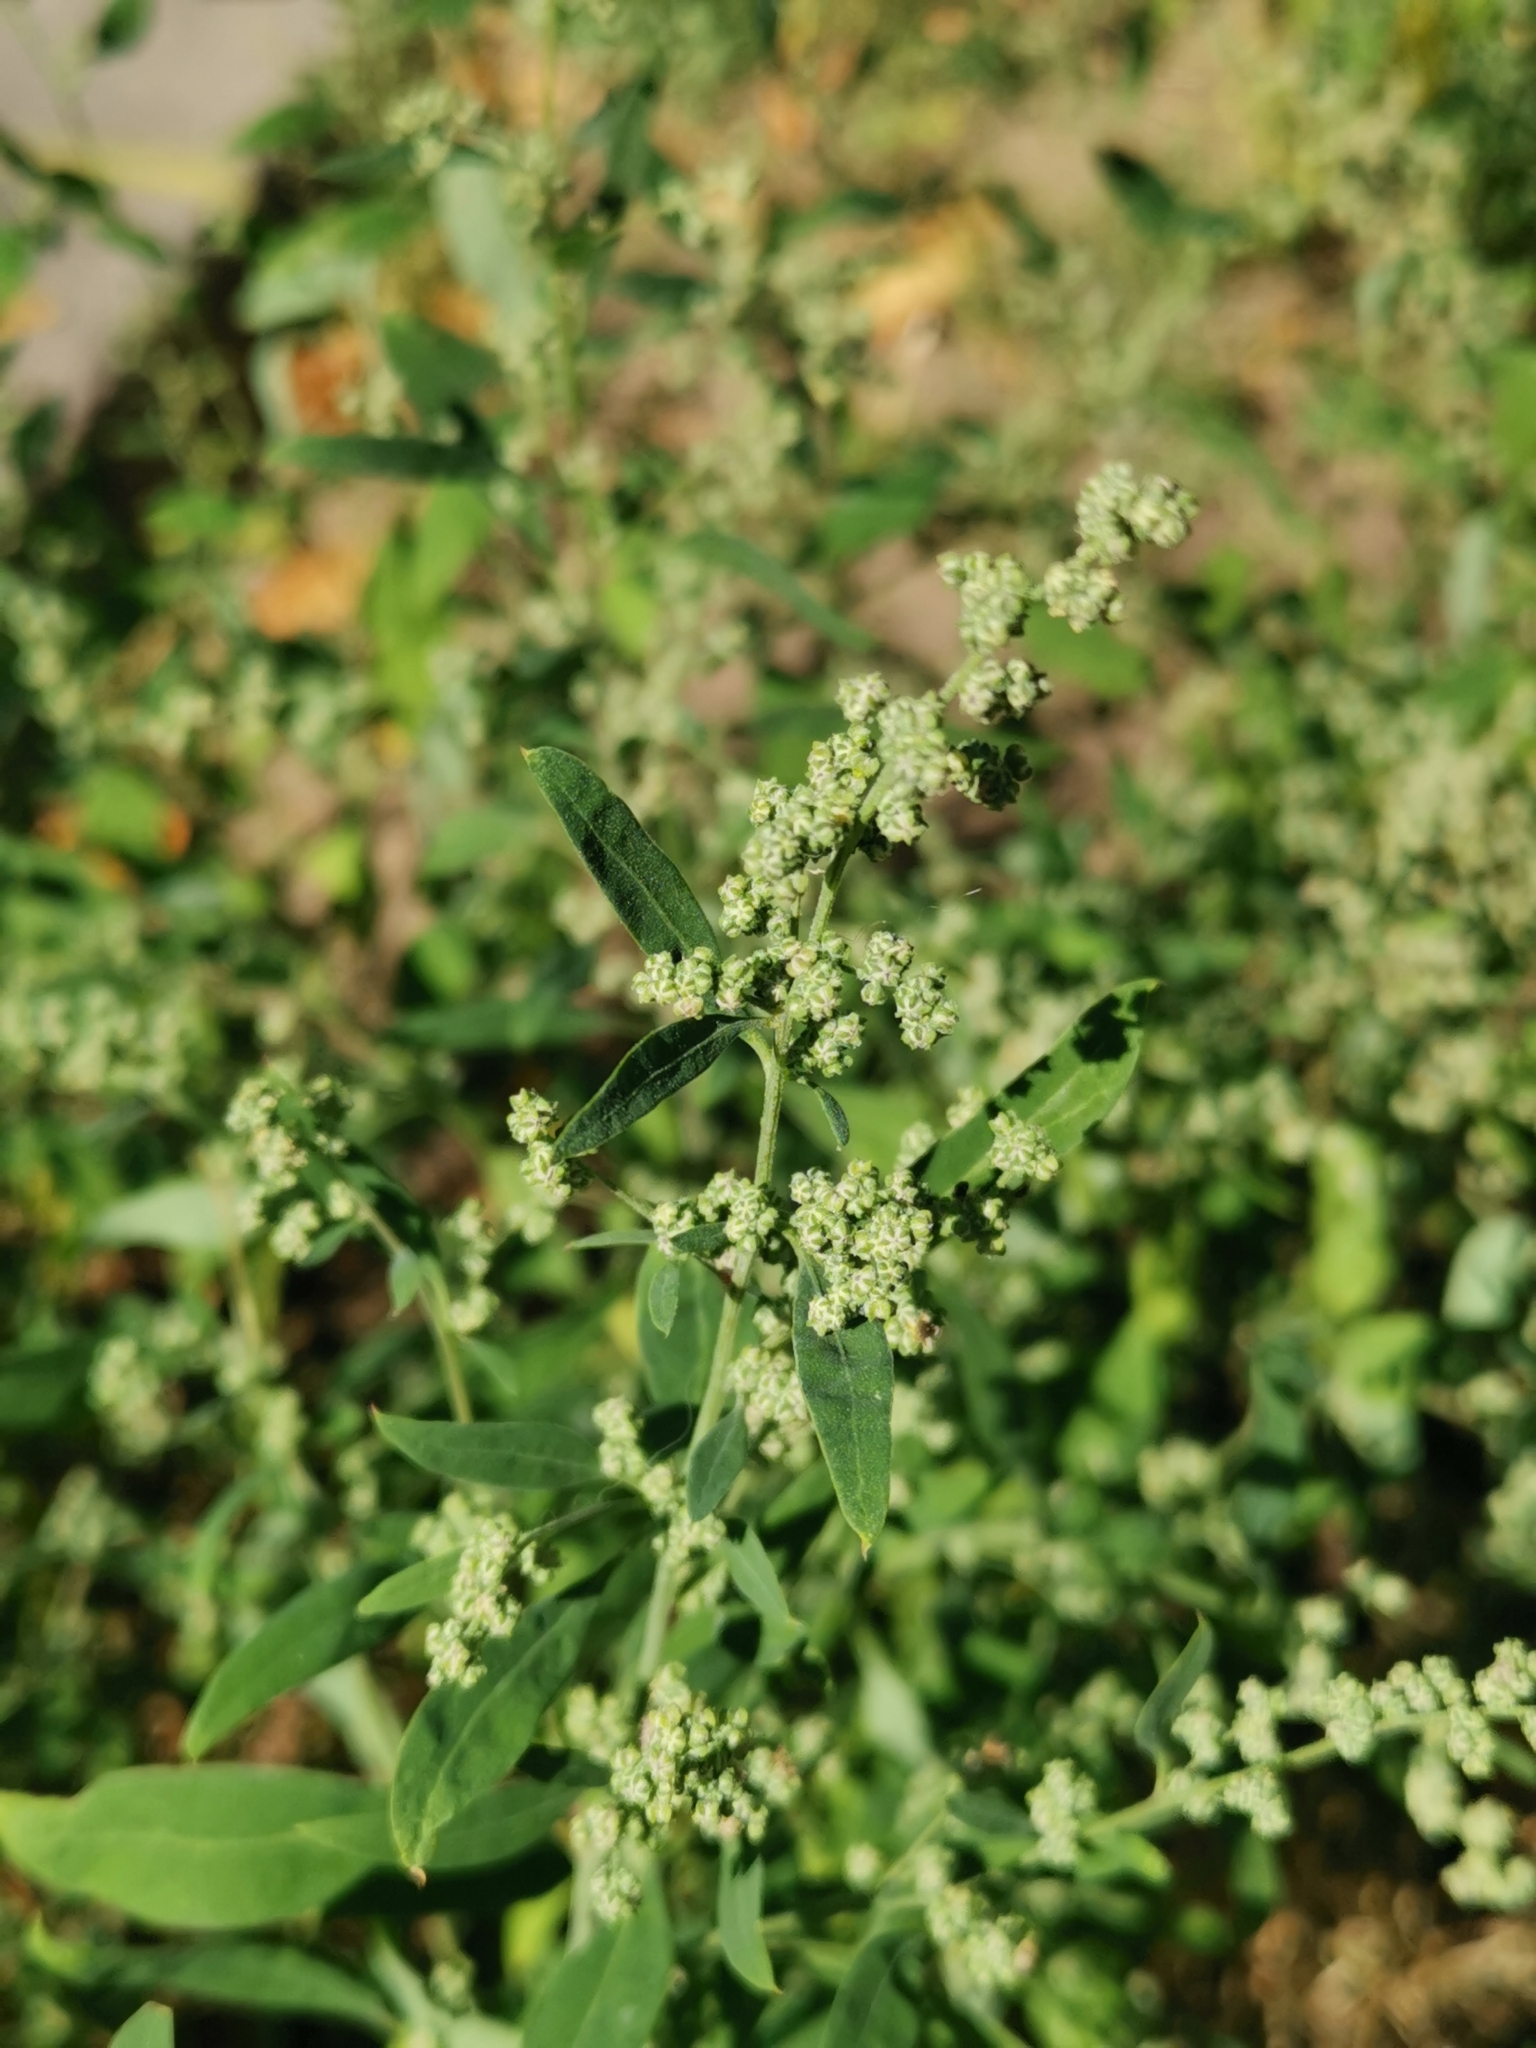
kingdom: Plantae
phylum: Tracheophyta
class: Magnoliopsida
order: Caryophyllales
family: Amaranthaceae
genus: Chenopodium
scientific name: Chenopodium album
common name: Fat-hen
